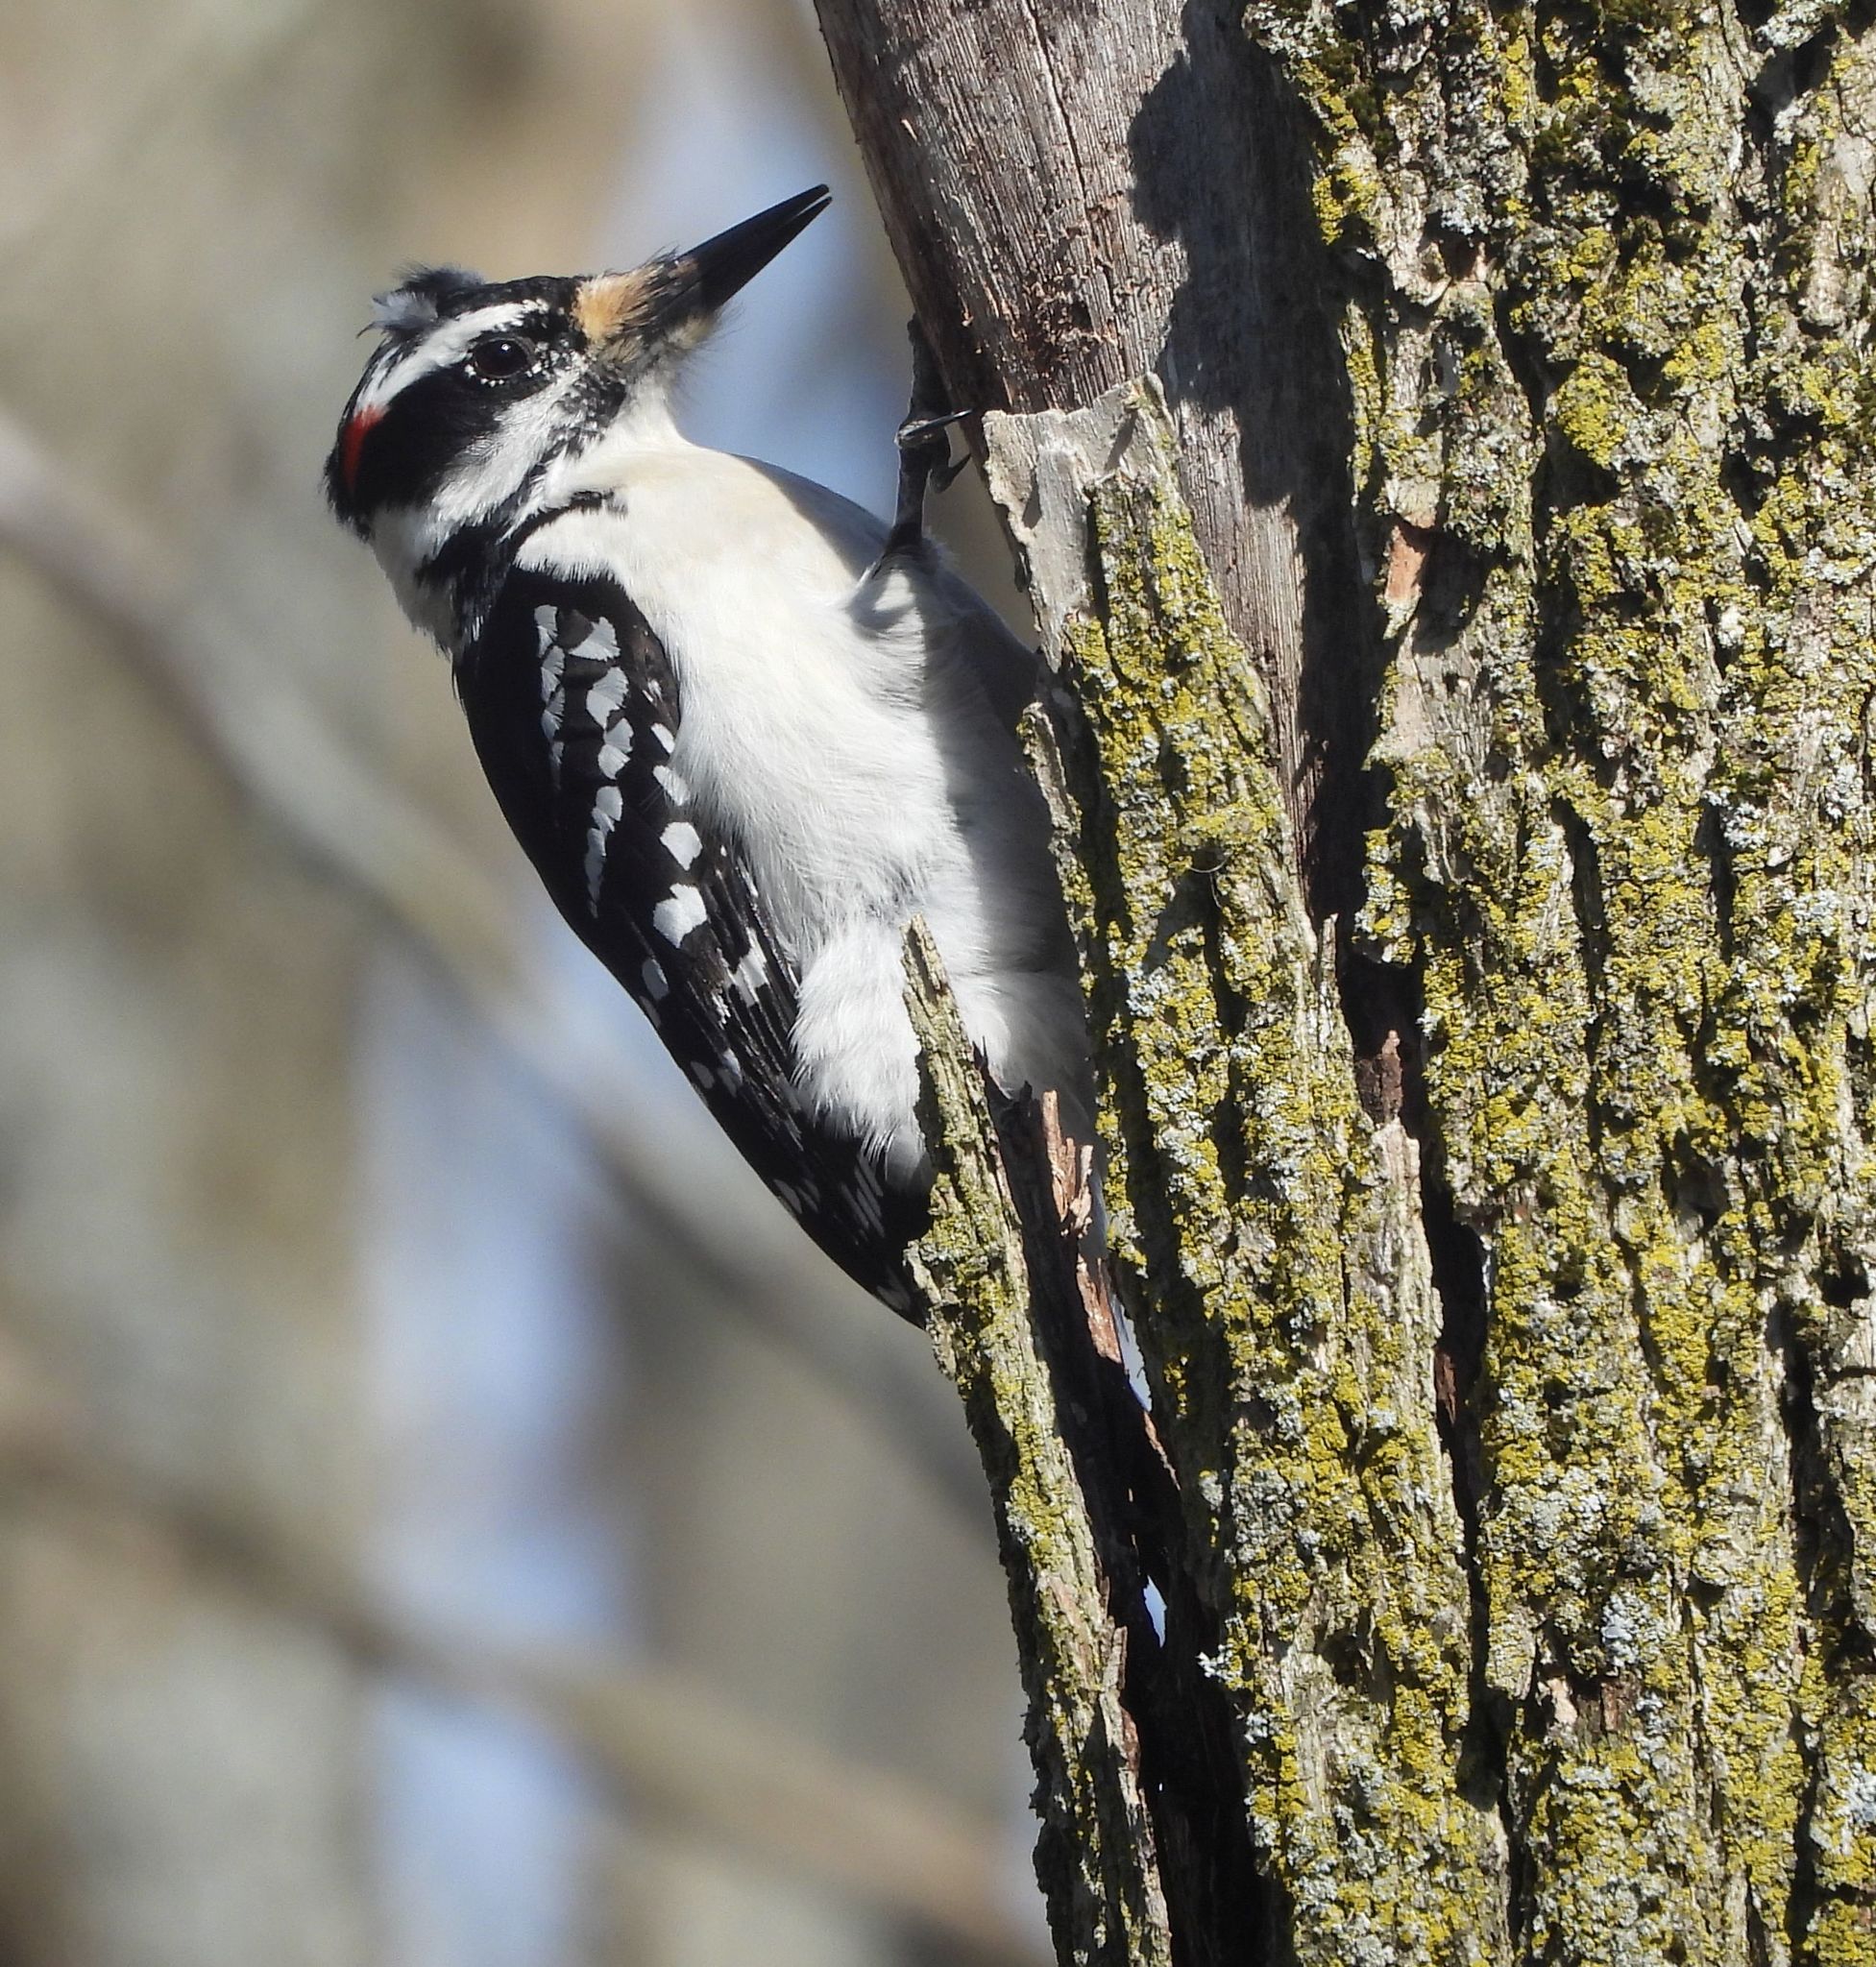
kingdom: Animalia
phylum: Chordata
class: Aves
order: Piciformes
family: Picidae
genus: Leuconotopicus
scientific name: Leuconotopicus villosus
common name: Hairy woodpecker
